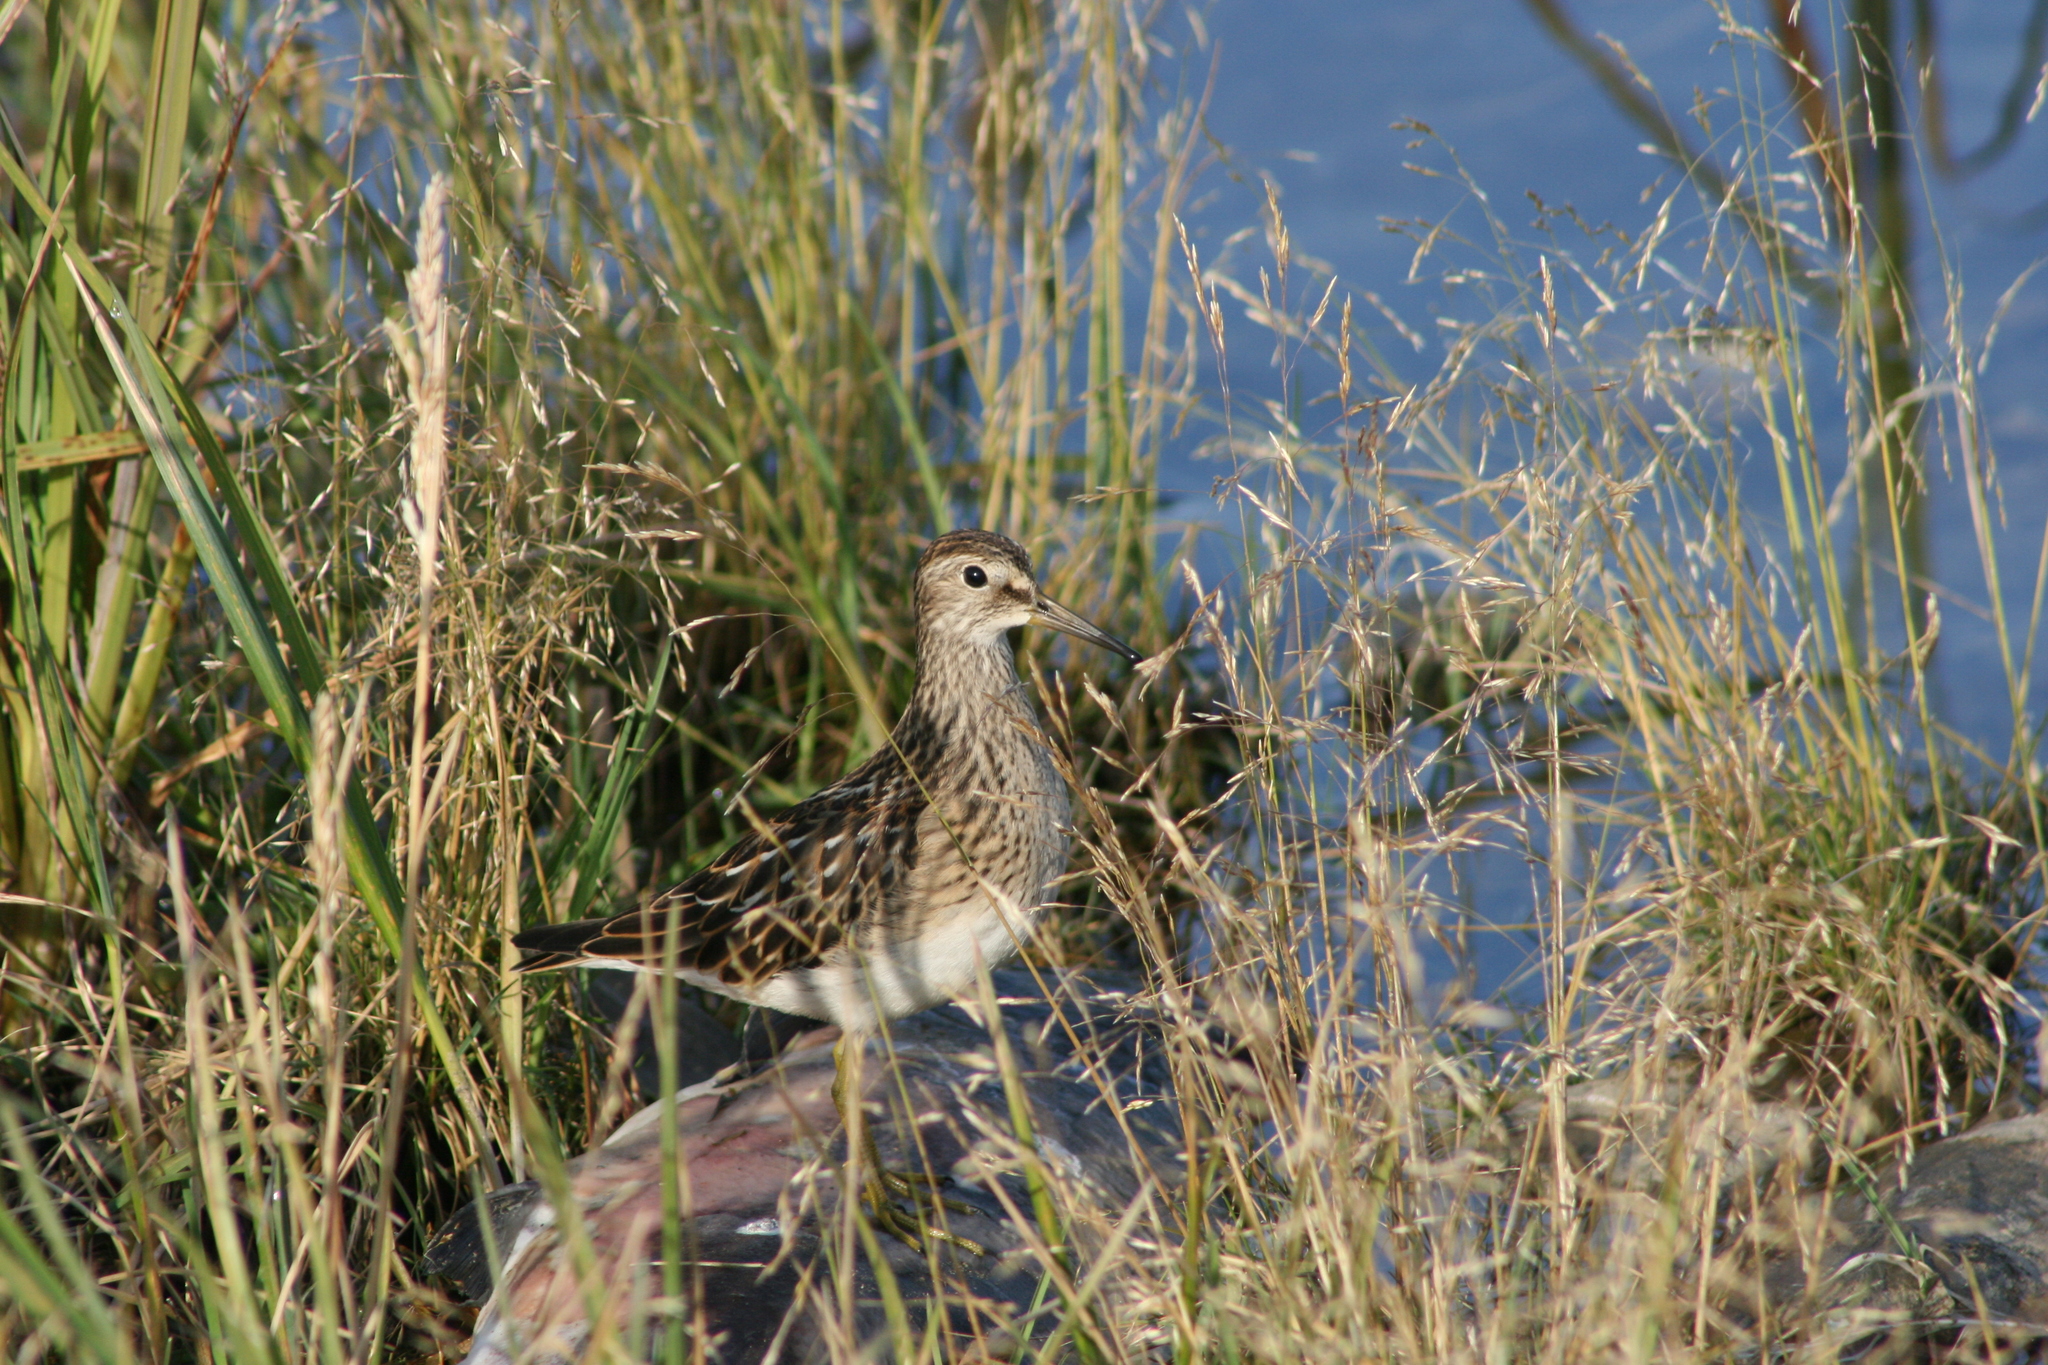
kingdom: Animalia
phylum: Chordata
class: Aves
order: Charadriiformes
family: Scolopacidae
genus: Calidris
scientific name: Calidris melanotos
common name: Pectoral sandpiper
